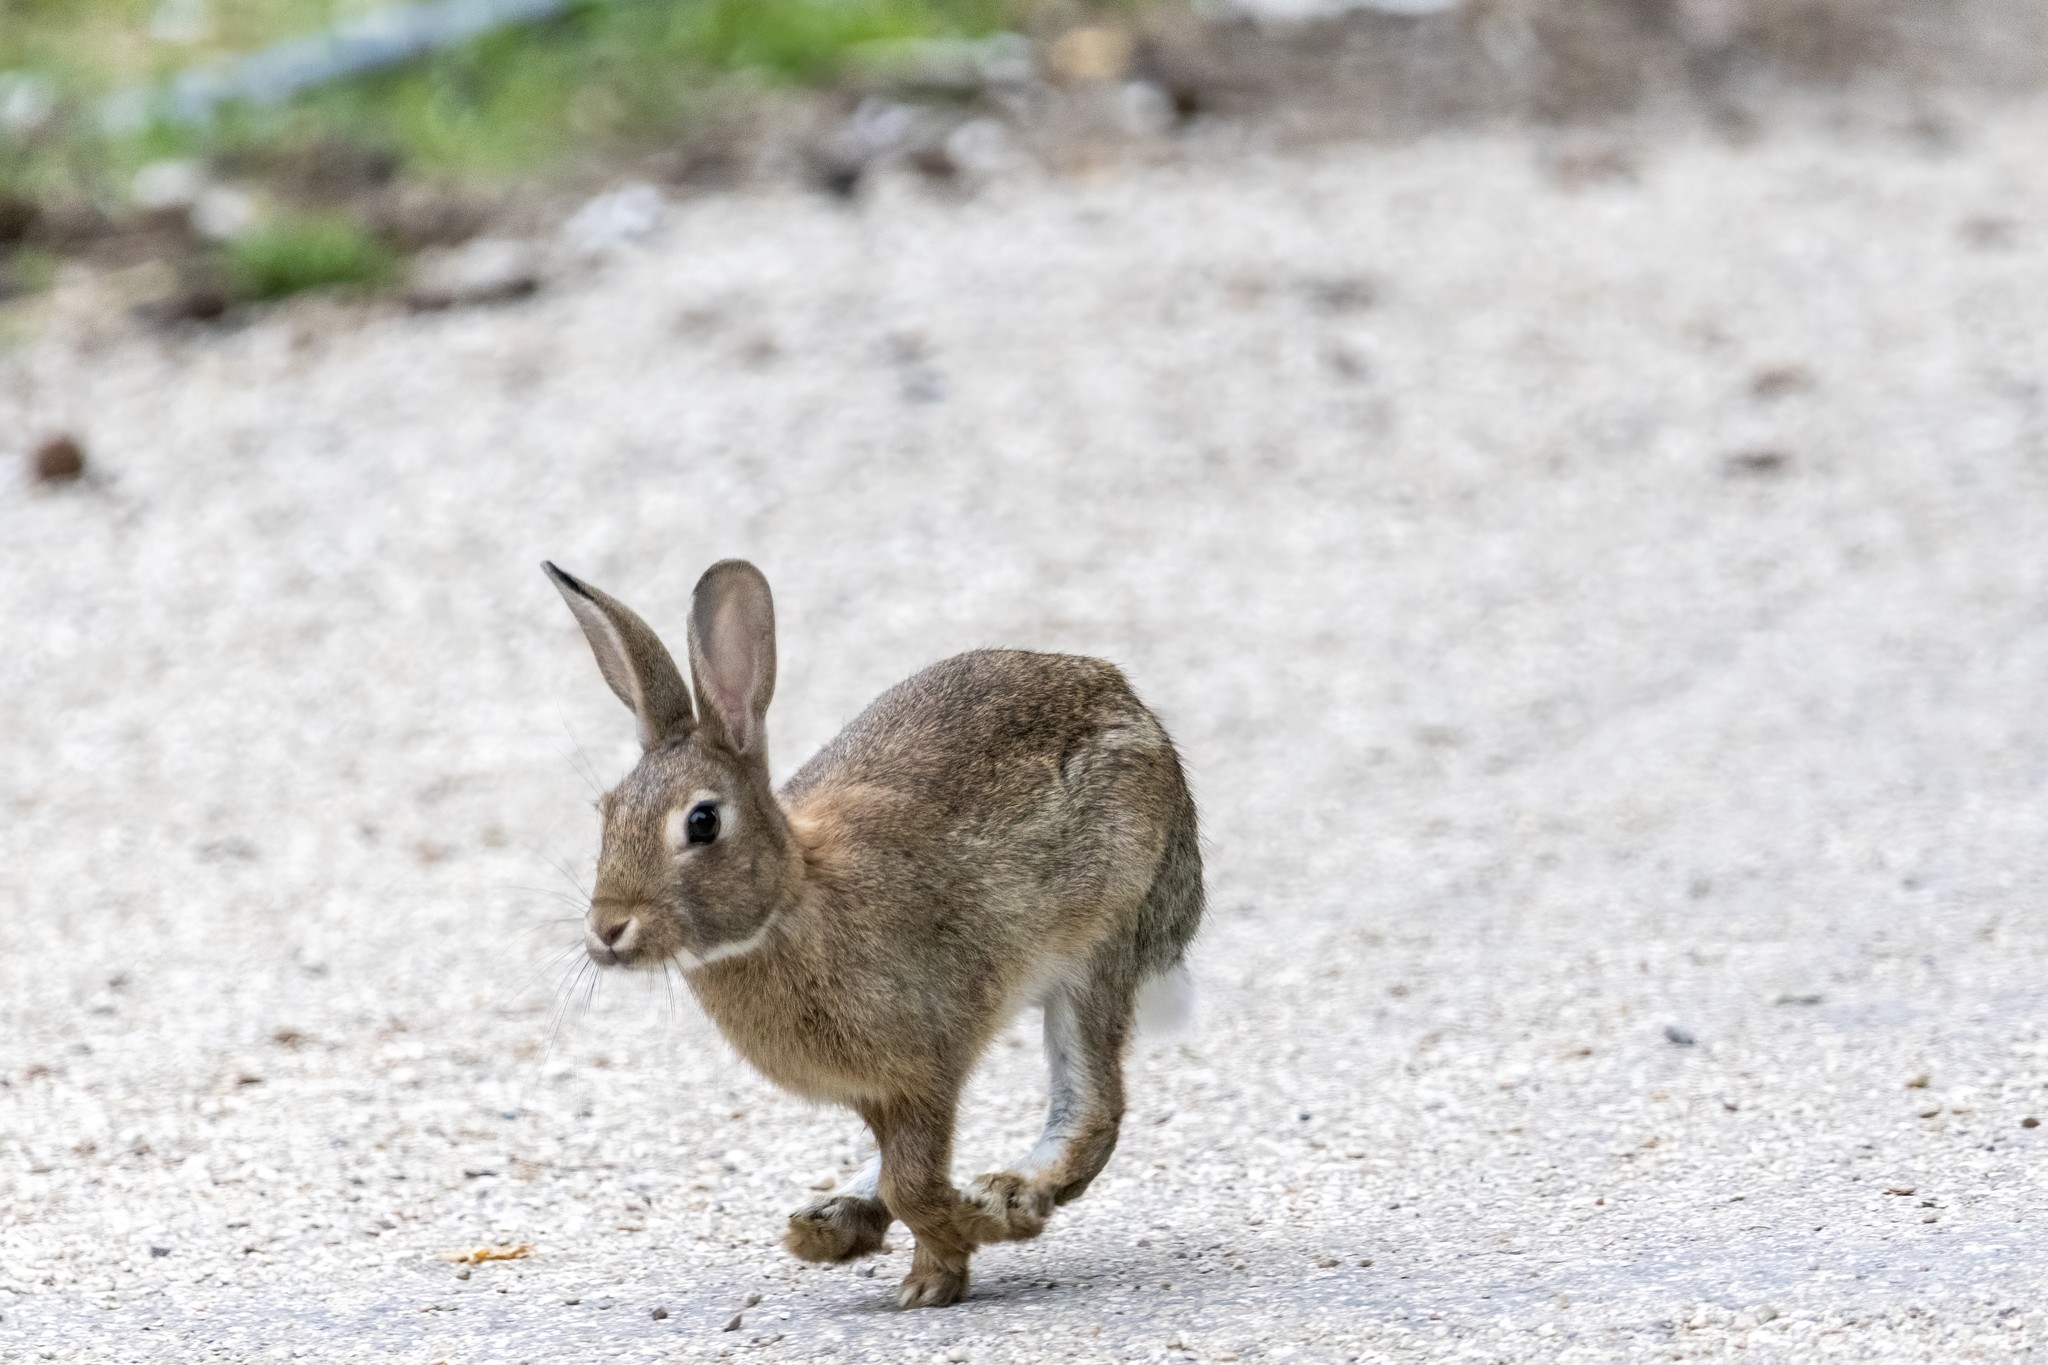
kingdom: Animalia
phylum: Chordata
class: Mammalia
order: Lagomorpha
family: Leporidae
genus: Oryctolagus
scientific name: Oryctolagus cuniculus
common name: European rabbit
